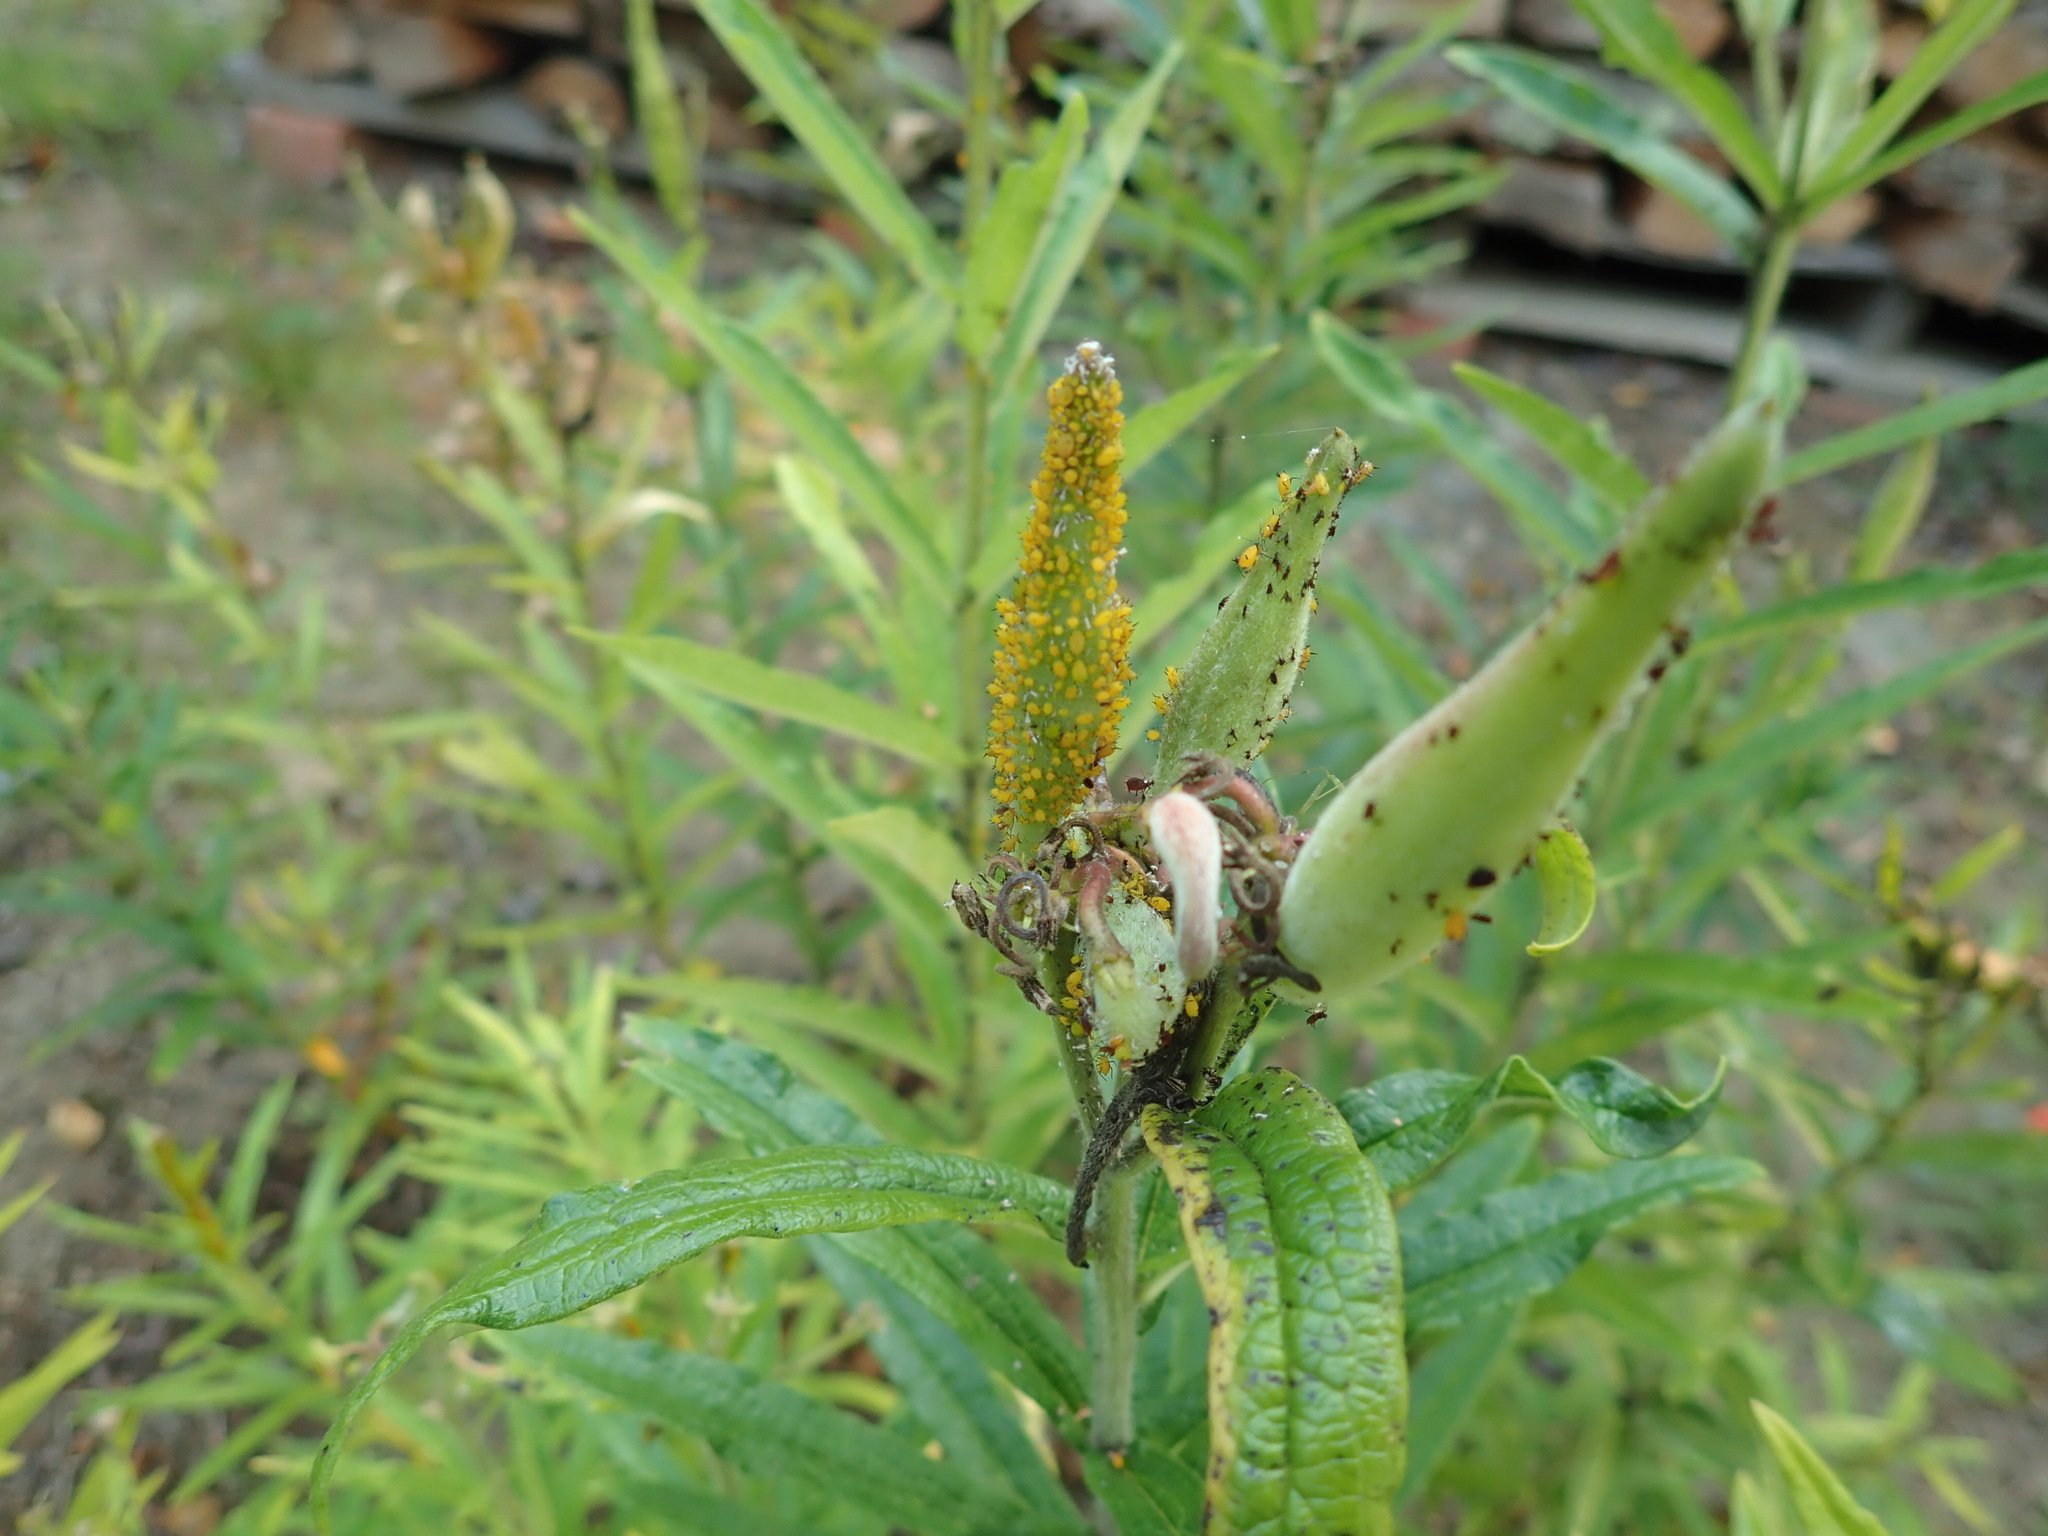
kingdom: Animalia
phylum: Arthropoda
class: Insecta
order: Hemiptera
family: Aphididae
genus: Aphis
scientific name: Aphis nerii
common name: Oleander aphid
